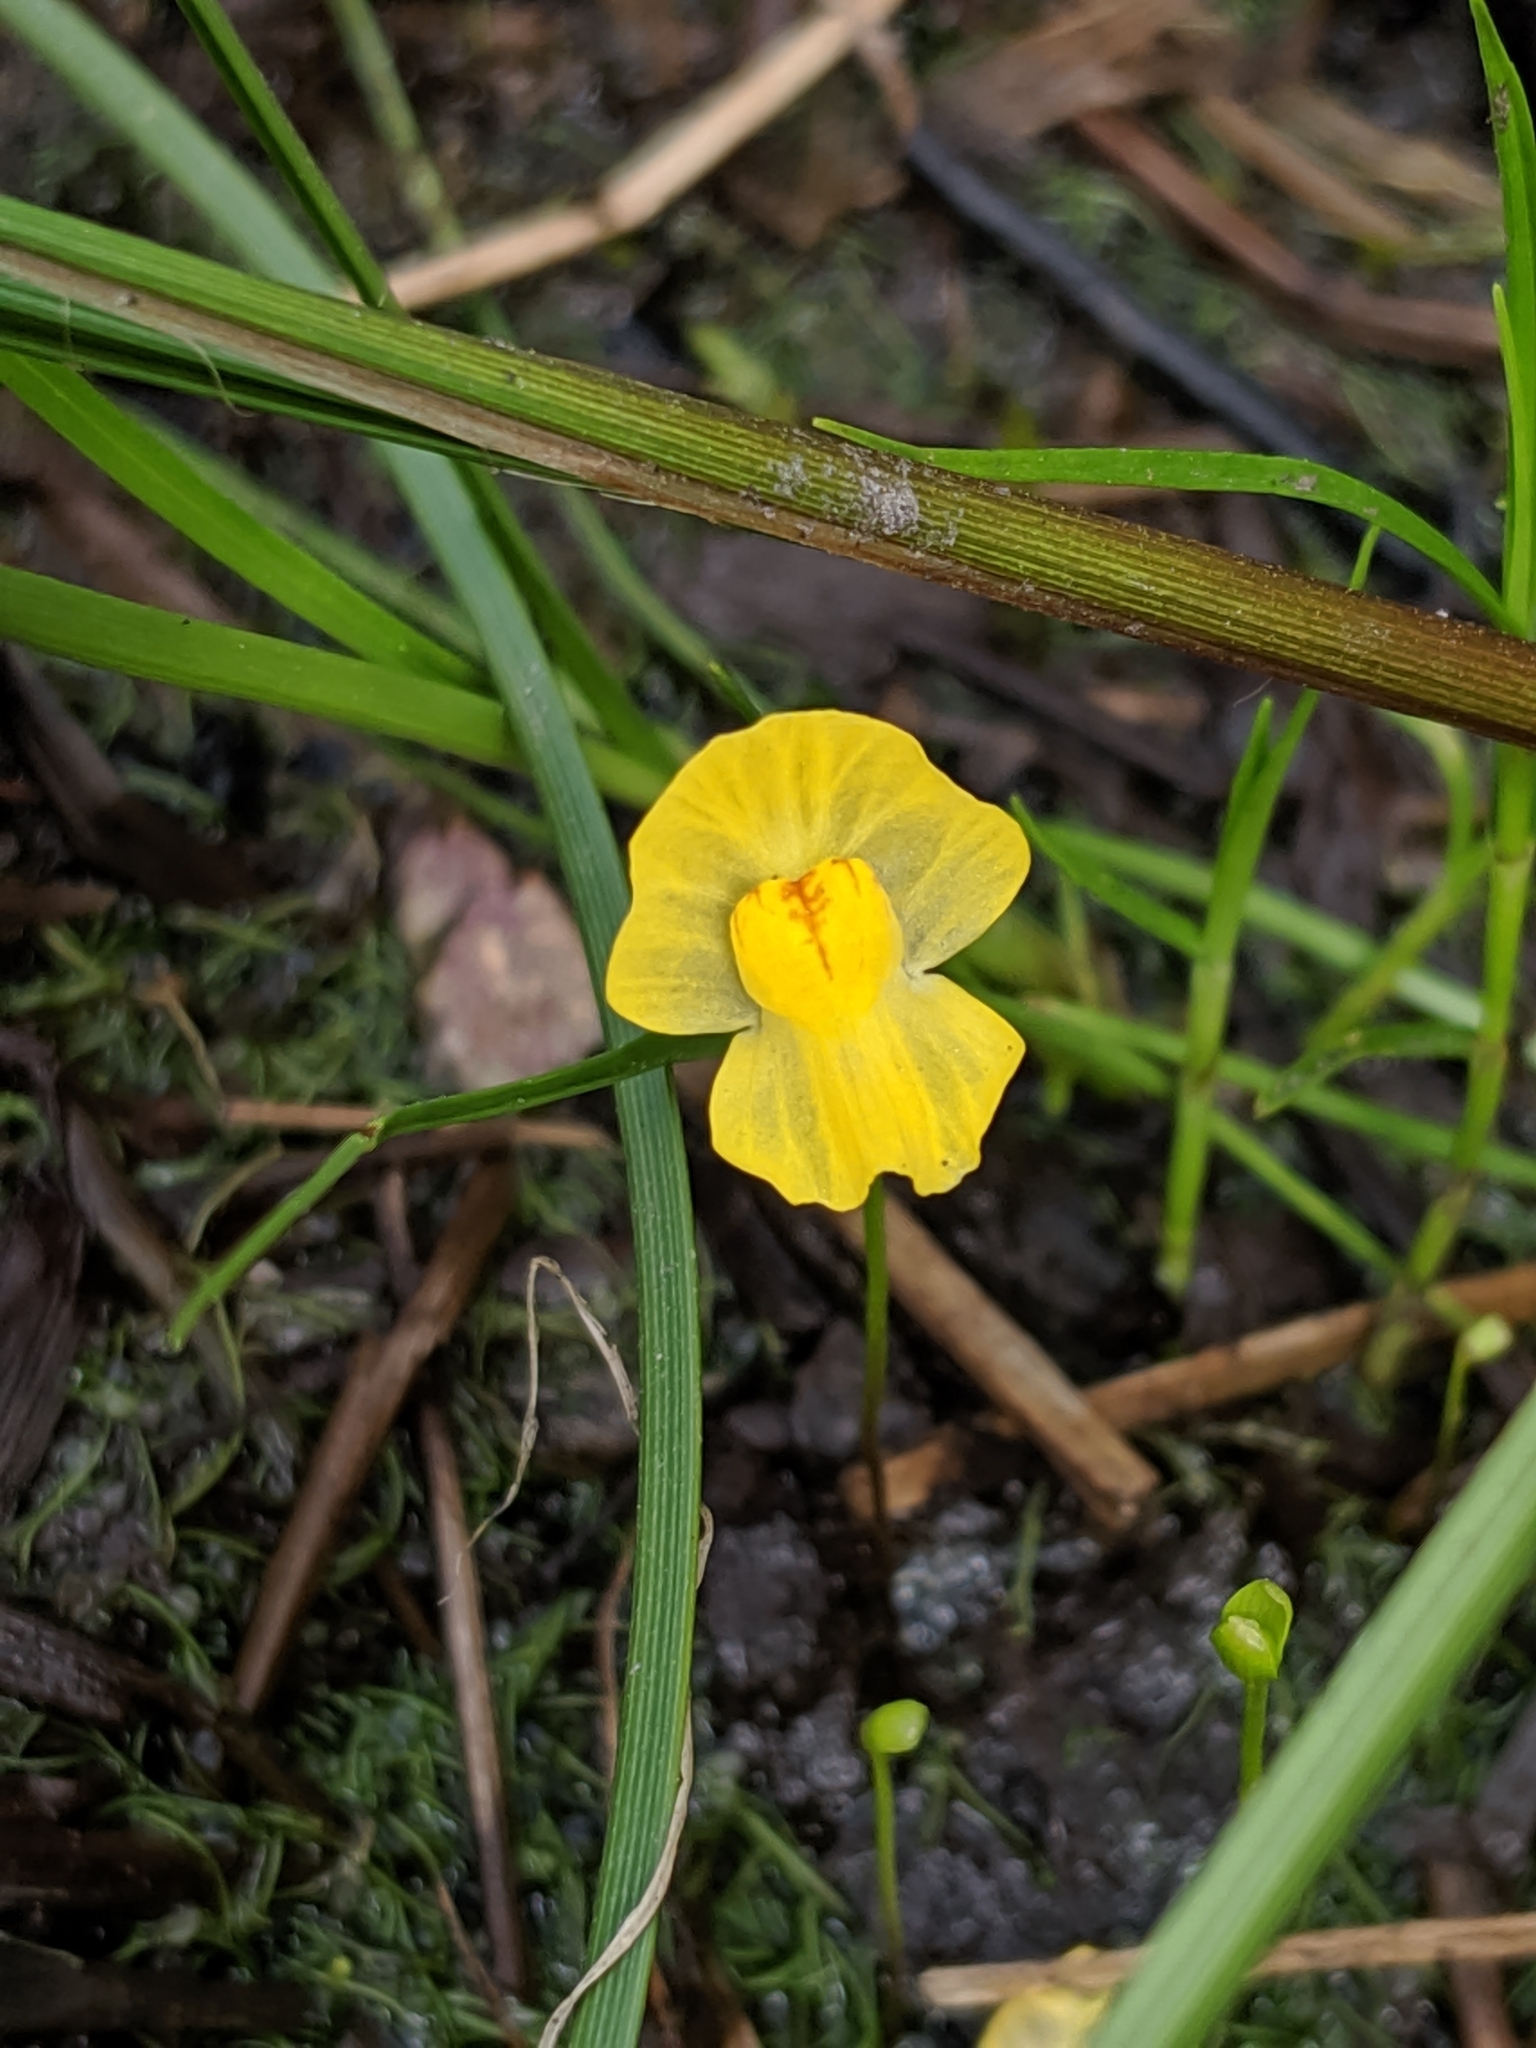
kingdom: Plantae
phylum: Tracheophyta
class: Magnoliopsida
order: Lamiales
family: Lentibulariaceae
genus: Utricularia
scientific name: Utricularia gibba
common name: Humped bladderwort
